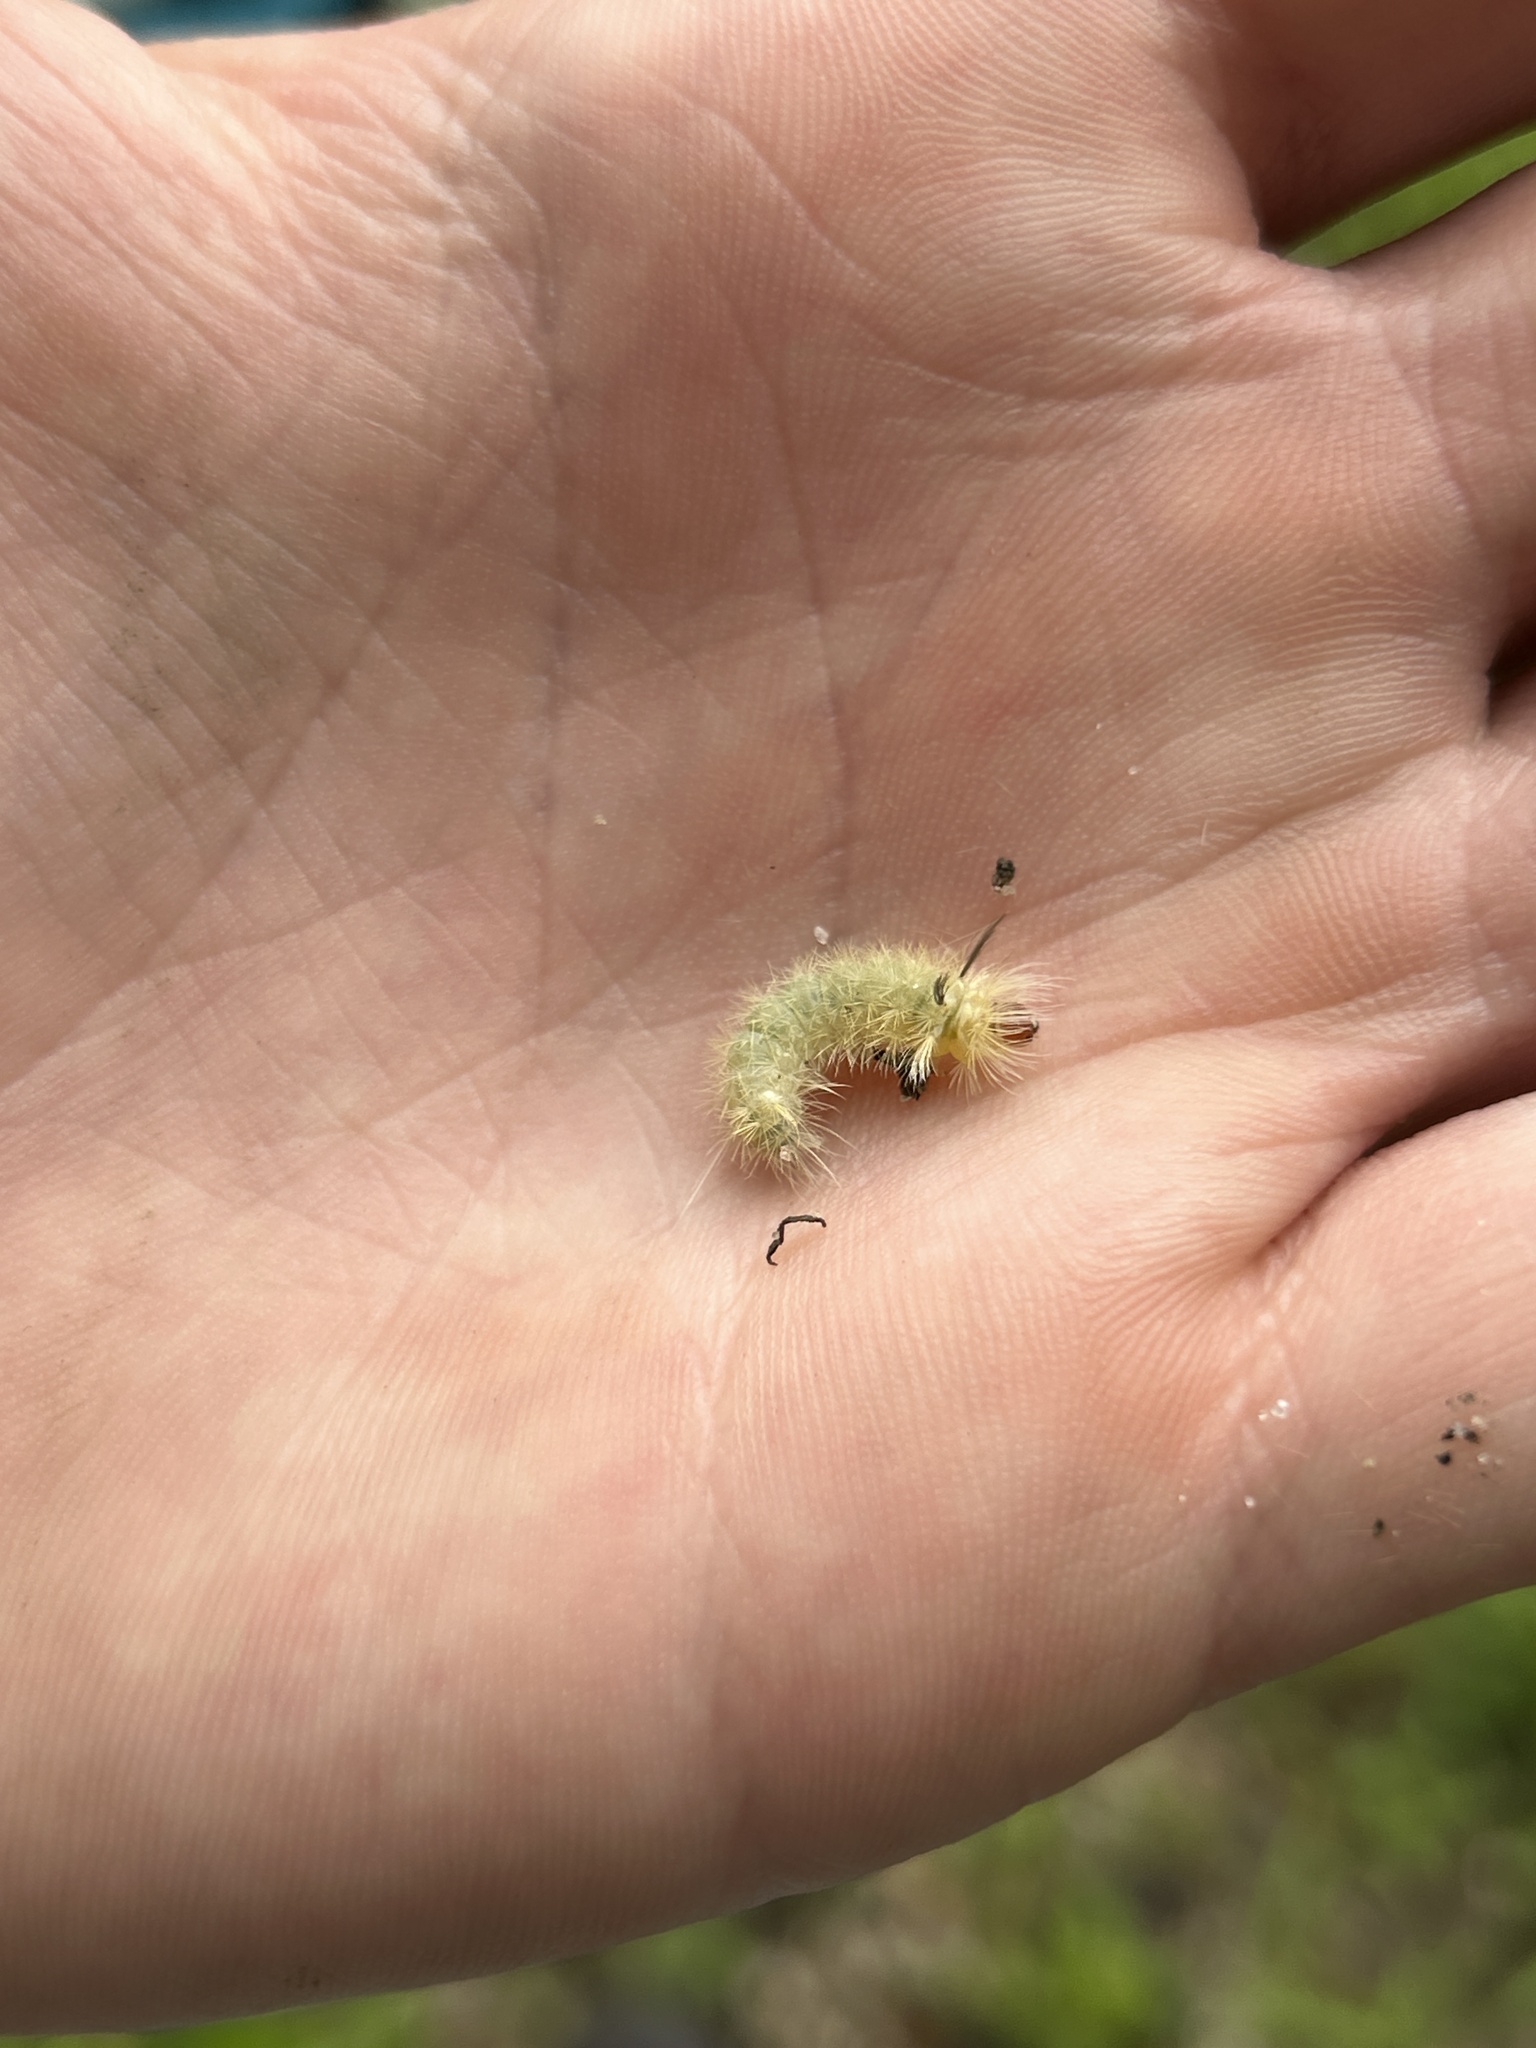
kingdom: Animalia
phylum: Arthropoda
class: Insecta
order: Lepidoptera
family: Erebidae
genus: Halysidota
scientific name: Halysidota tessellaris
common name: Banded tussock moth
